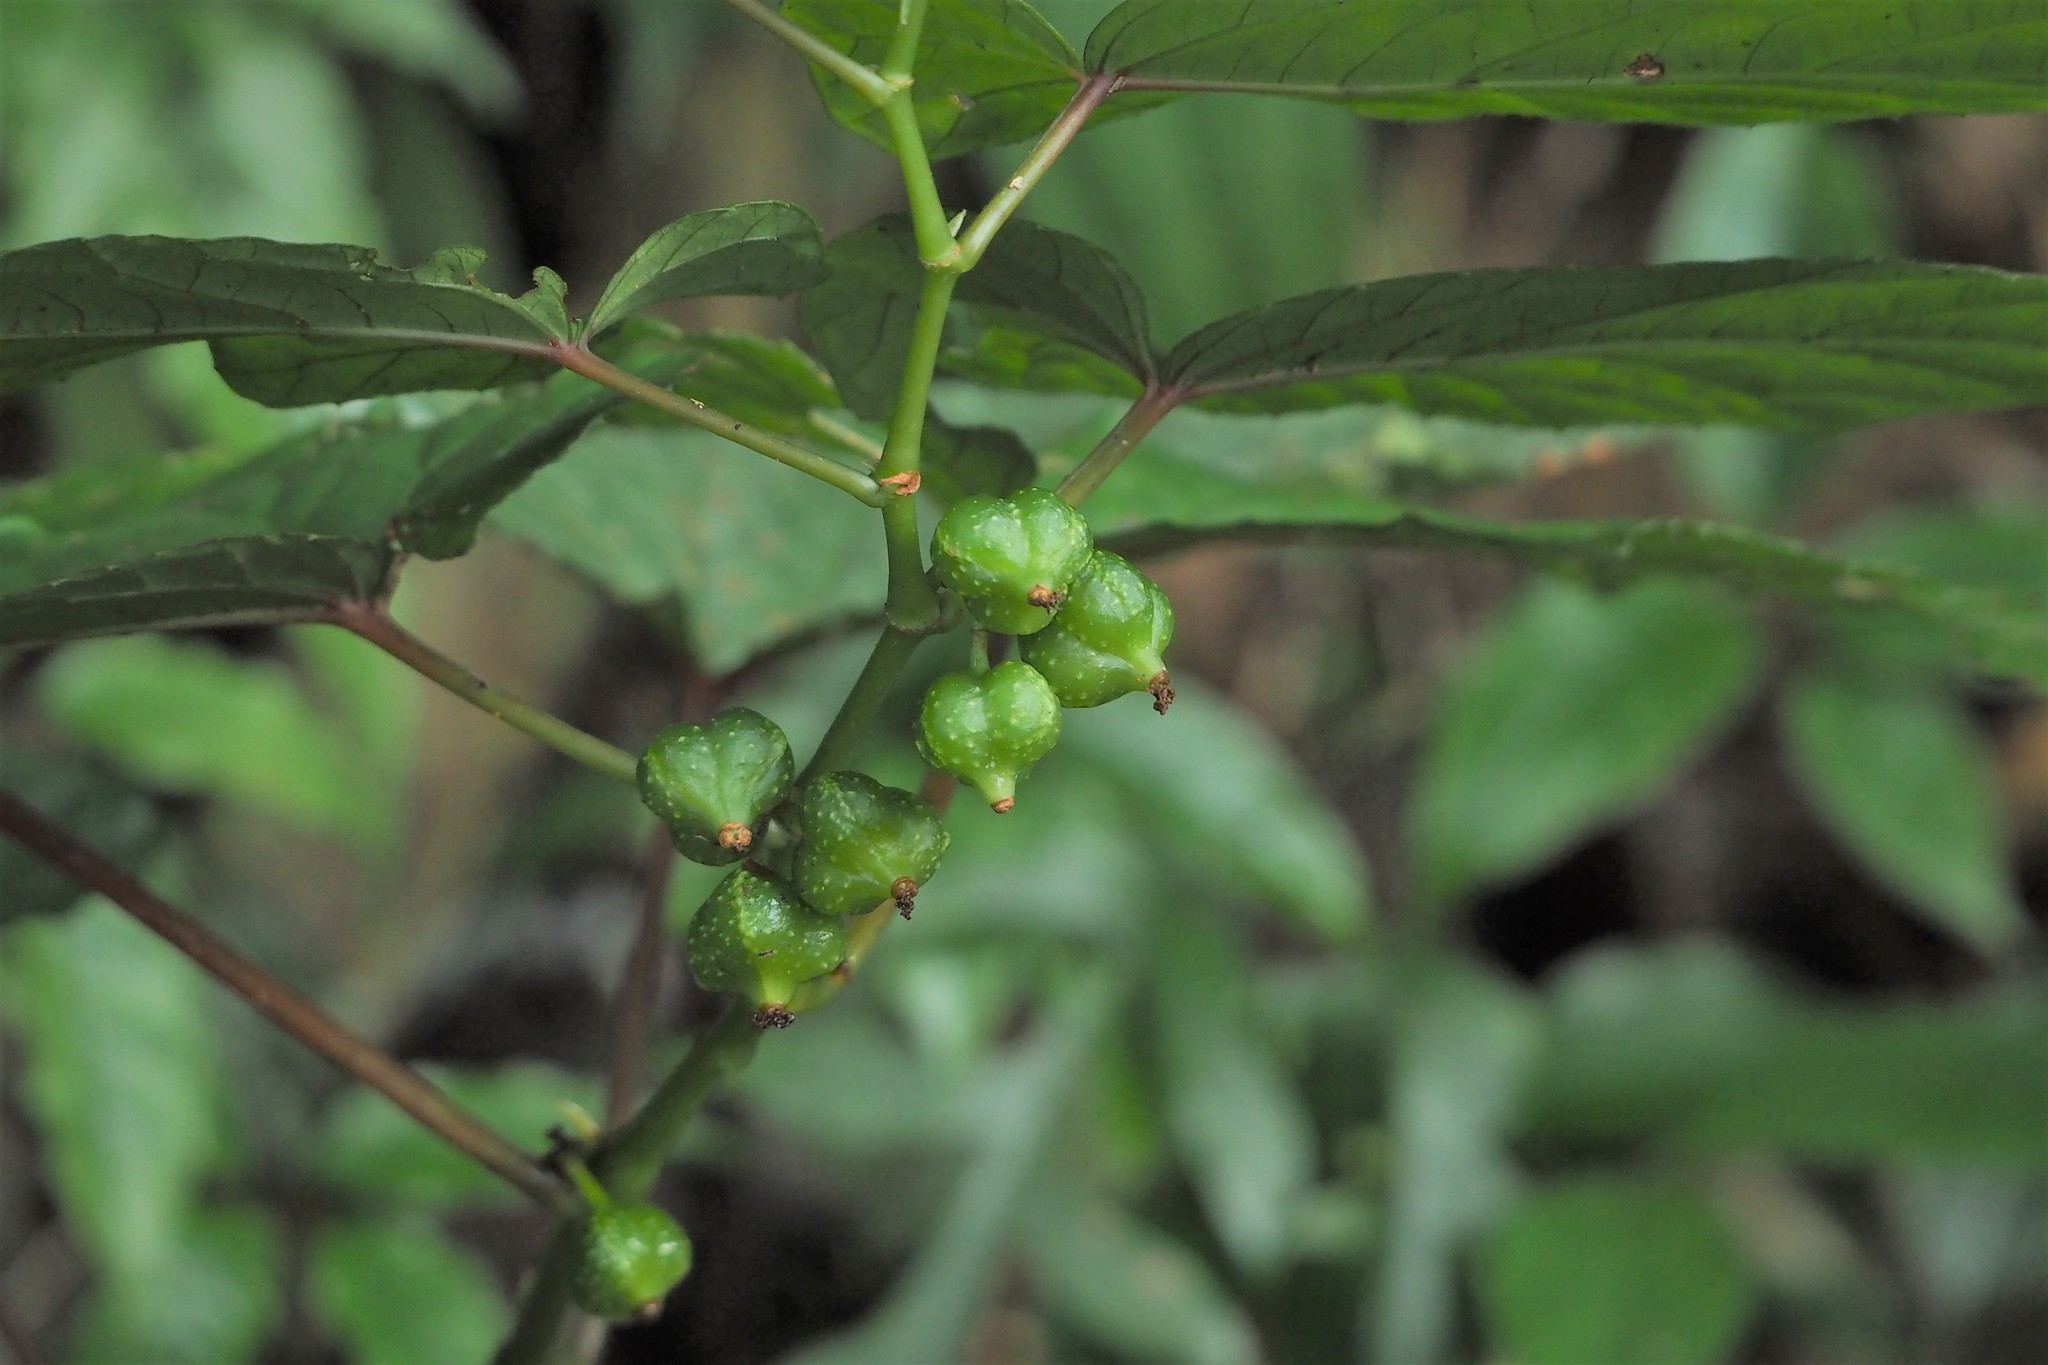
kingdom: Plantae
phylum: Tracheophyta
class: Magnoliopsida
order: Cucurbitales
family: Begoniaceae
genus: Begonia
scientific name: Begonia longifolia
